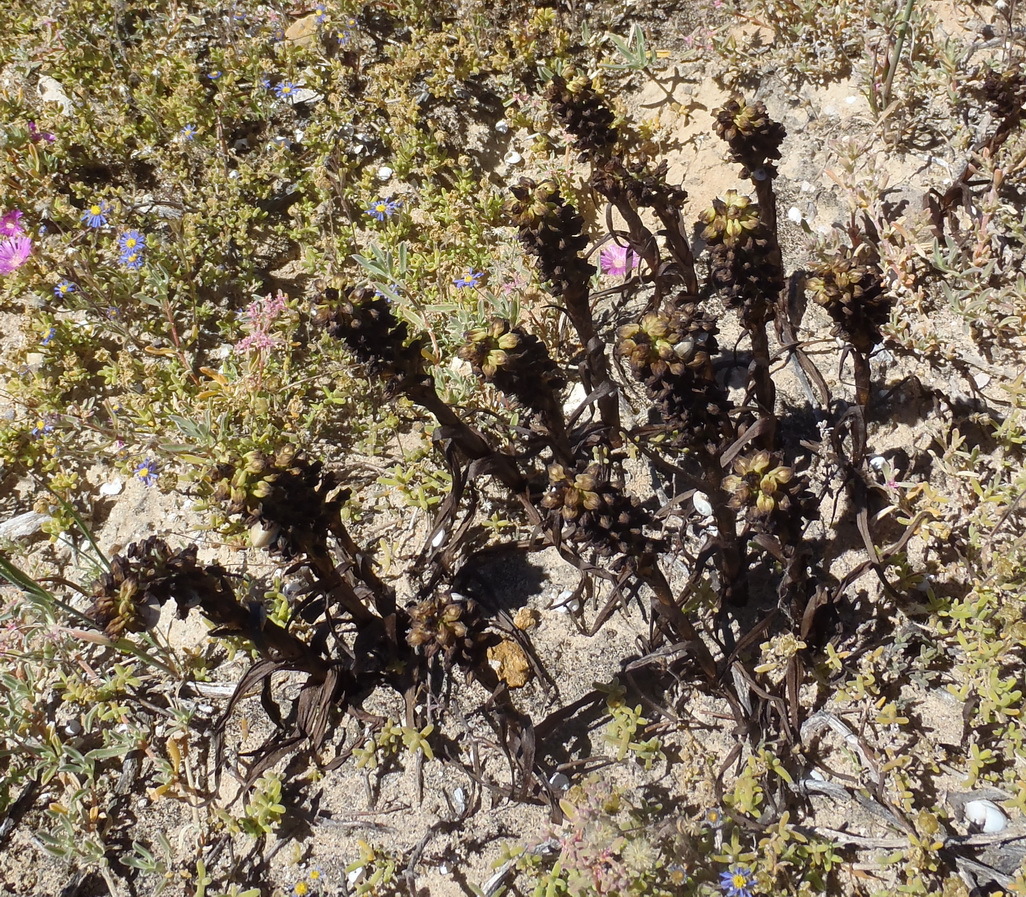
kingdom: Plantae
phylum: Tracheophyta
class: Liliopsida
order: Asparagales
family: Orchidaceae
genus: Corycium
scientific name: Corycium orobanchoides
